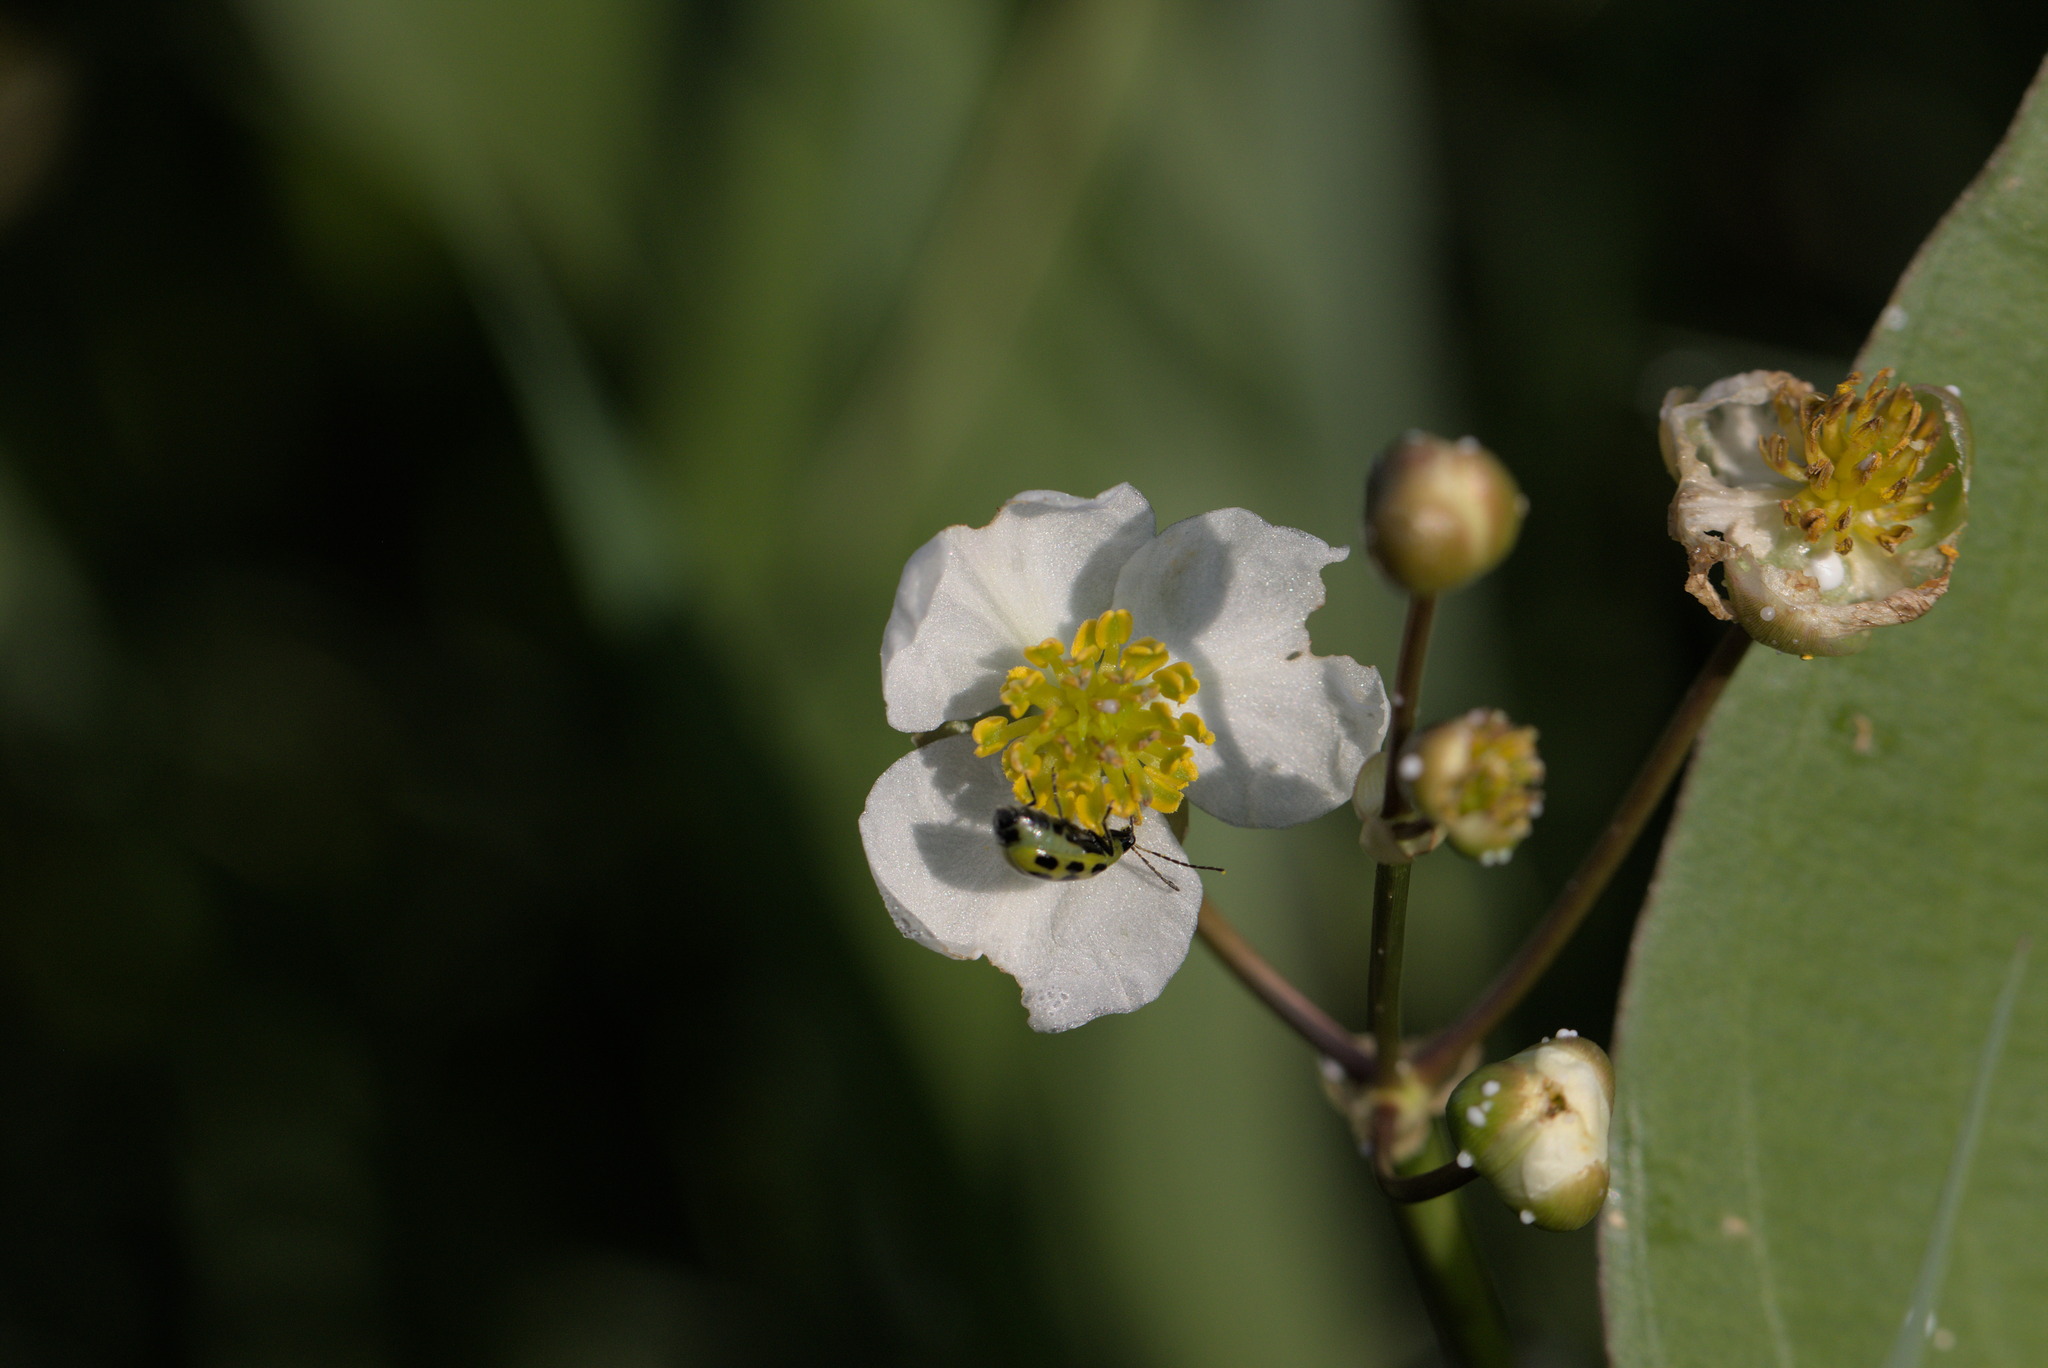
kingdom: Plantae
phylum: Tracheophyta
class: Liliopsida
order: Alismatales
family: Alismataceae
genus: Sagittaria
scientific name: Sagittaria latifolia
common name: Duck-potato
